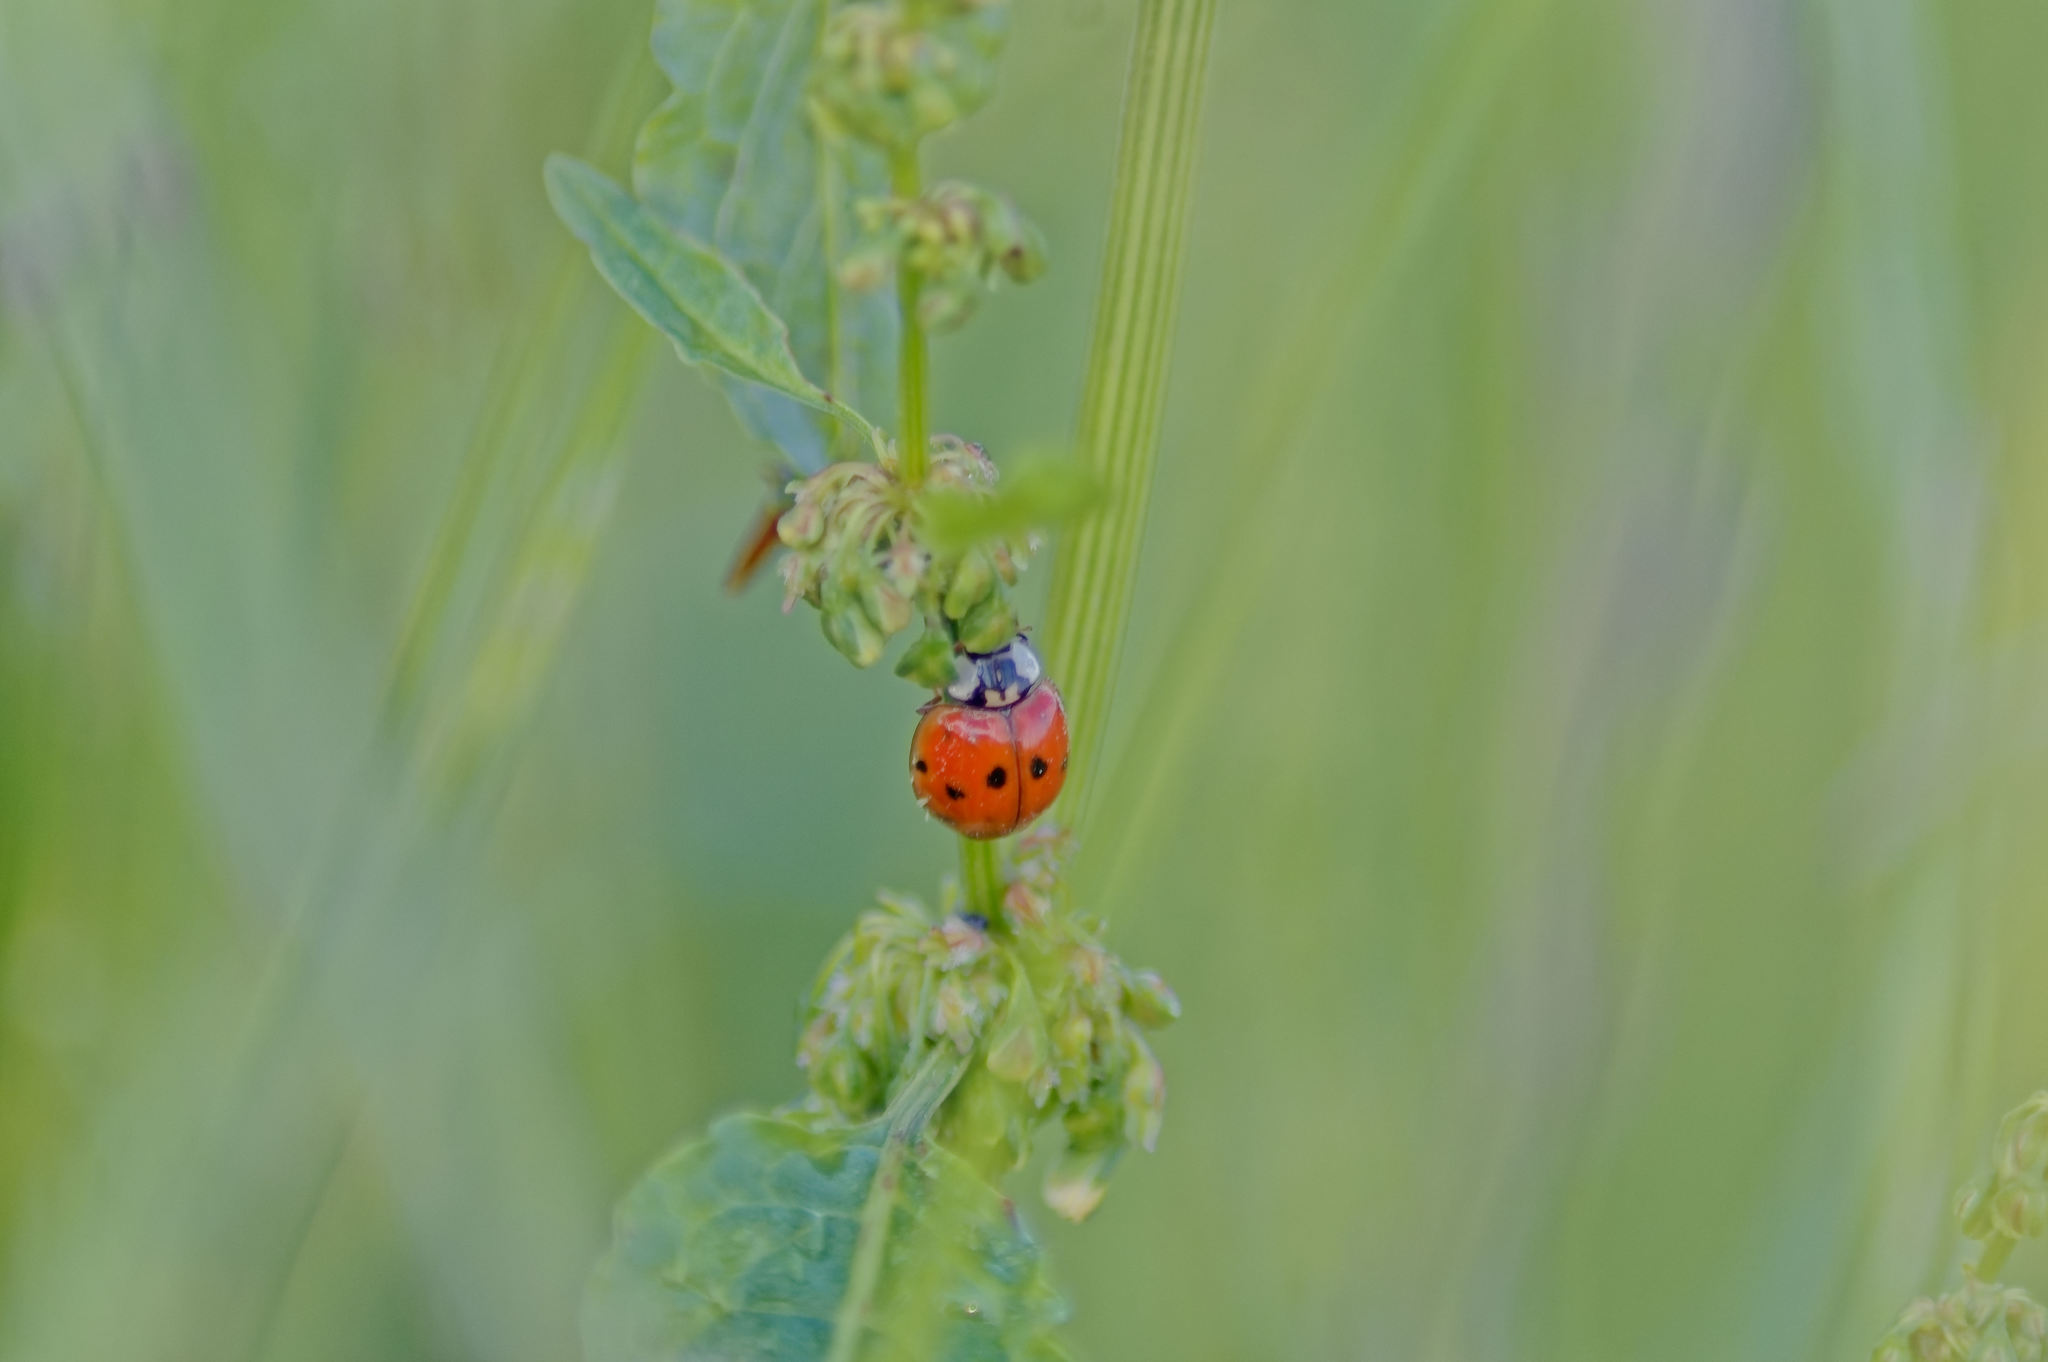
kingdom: Animalia
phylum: Arthropoda
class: Insecta
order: Coleoptera
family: Coccinellidae
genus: Harmonia
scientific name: Harmonia axyridis
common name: Harlequin ladybird
